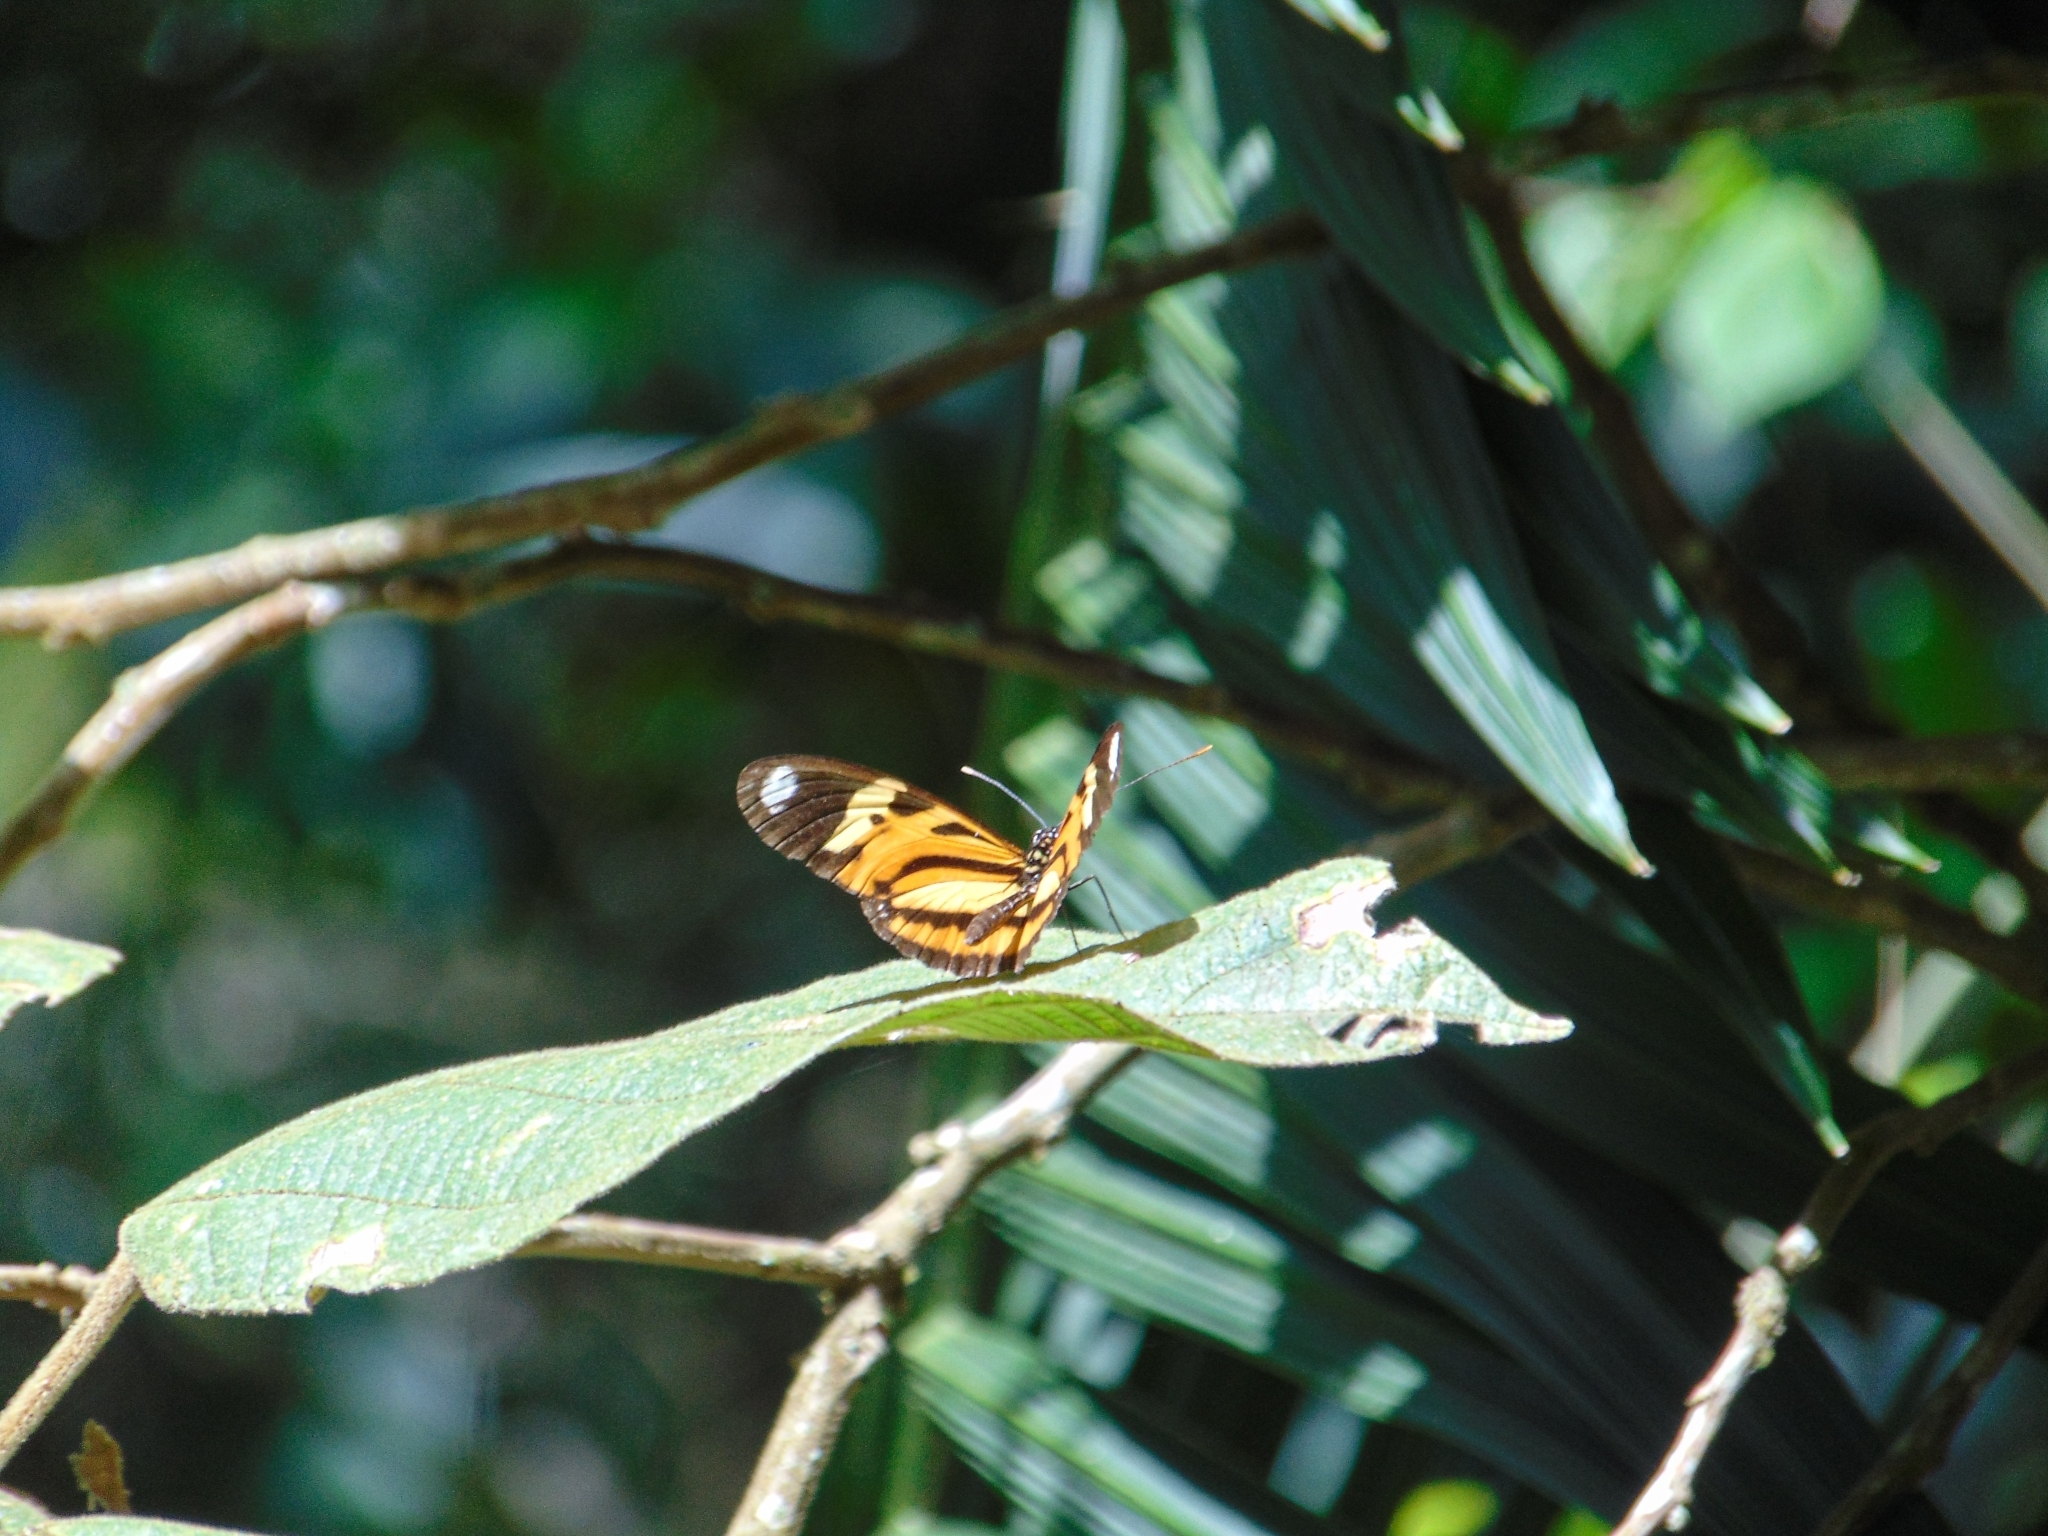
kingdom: Animalia
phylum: Arthropoda
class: Insecta
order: Lepidoptera
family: Nymphalidae
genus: Heliconius
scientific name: Heliconius ethilla
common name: Ethilia longwing
